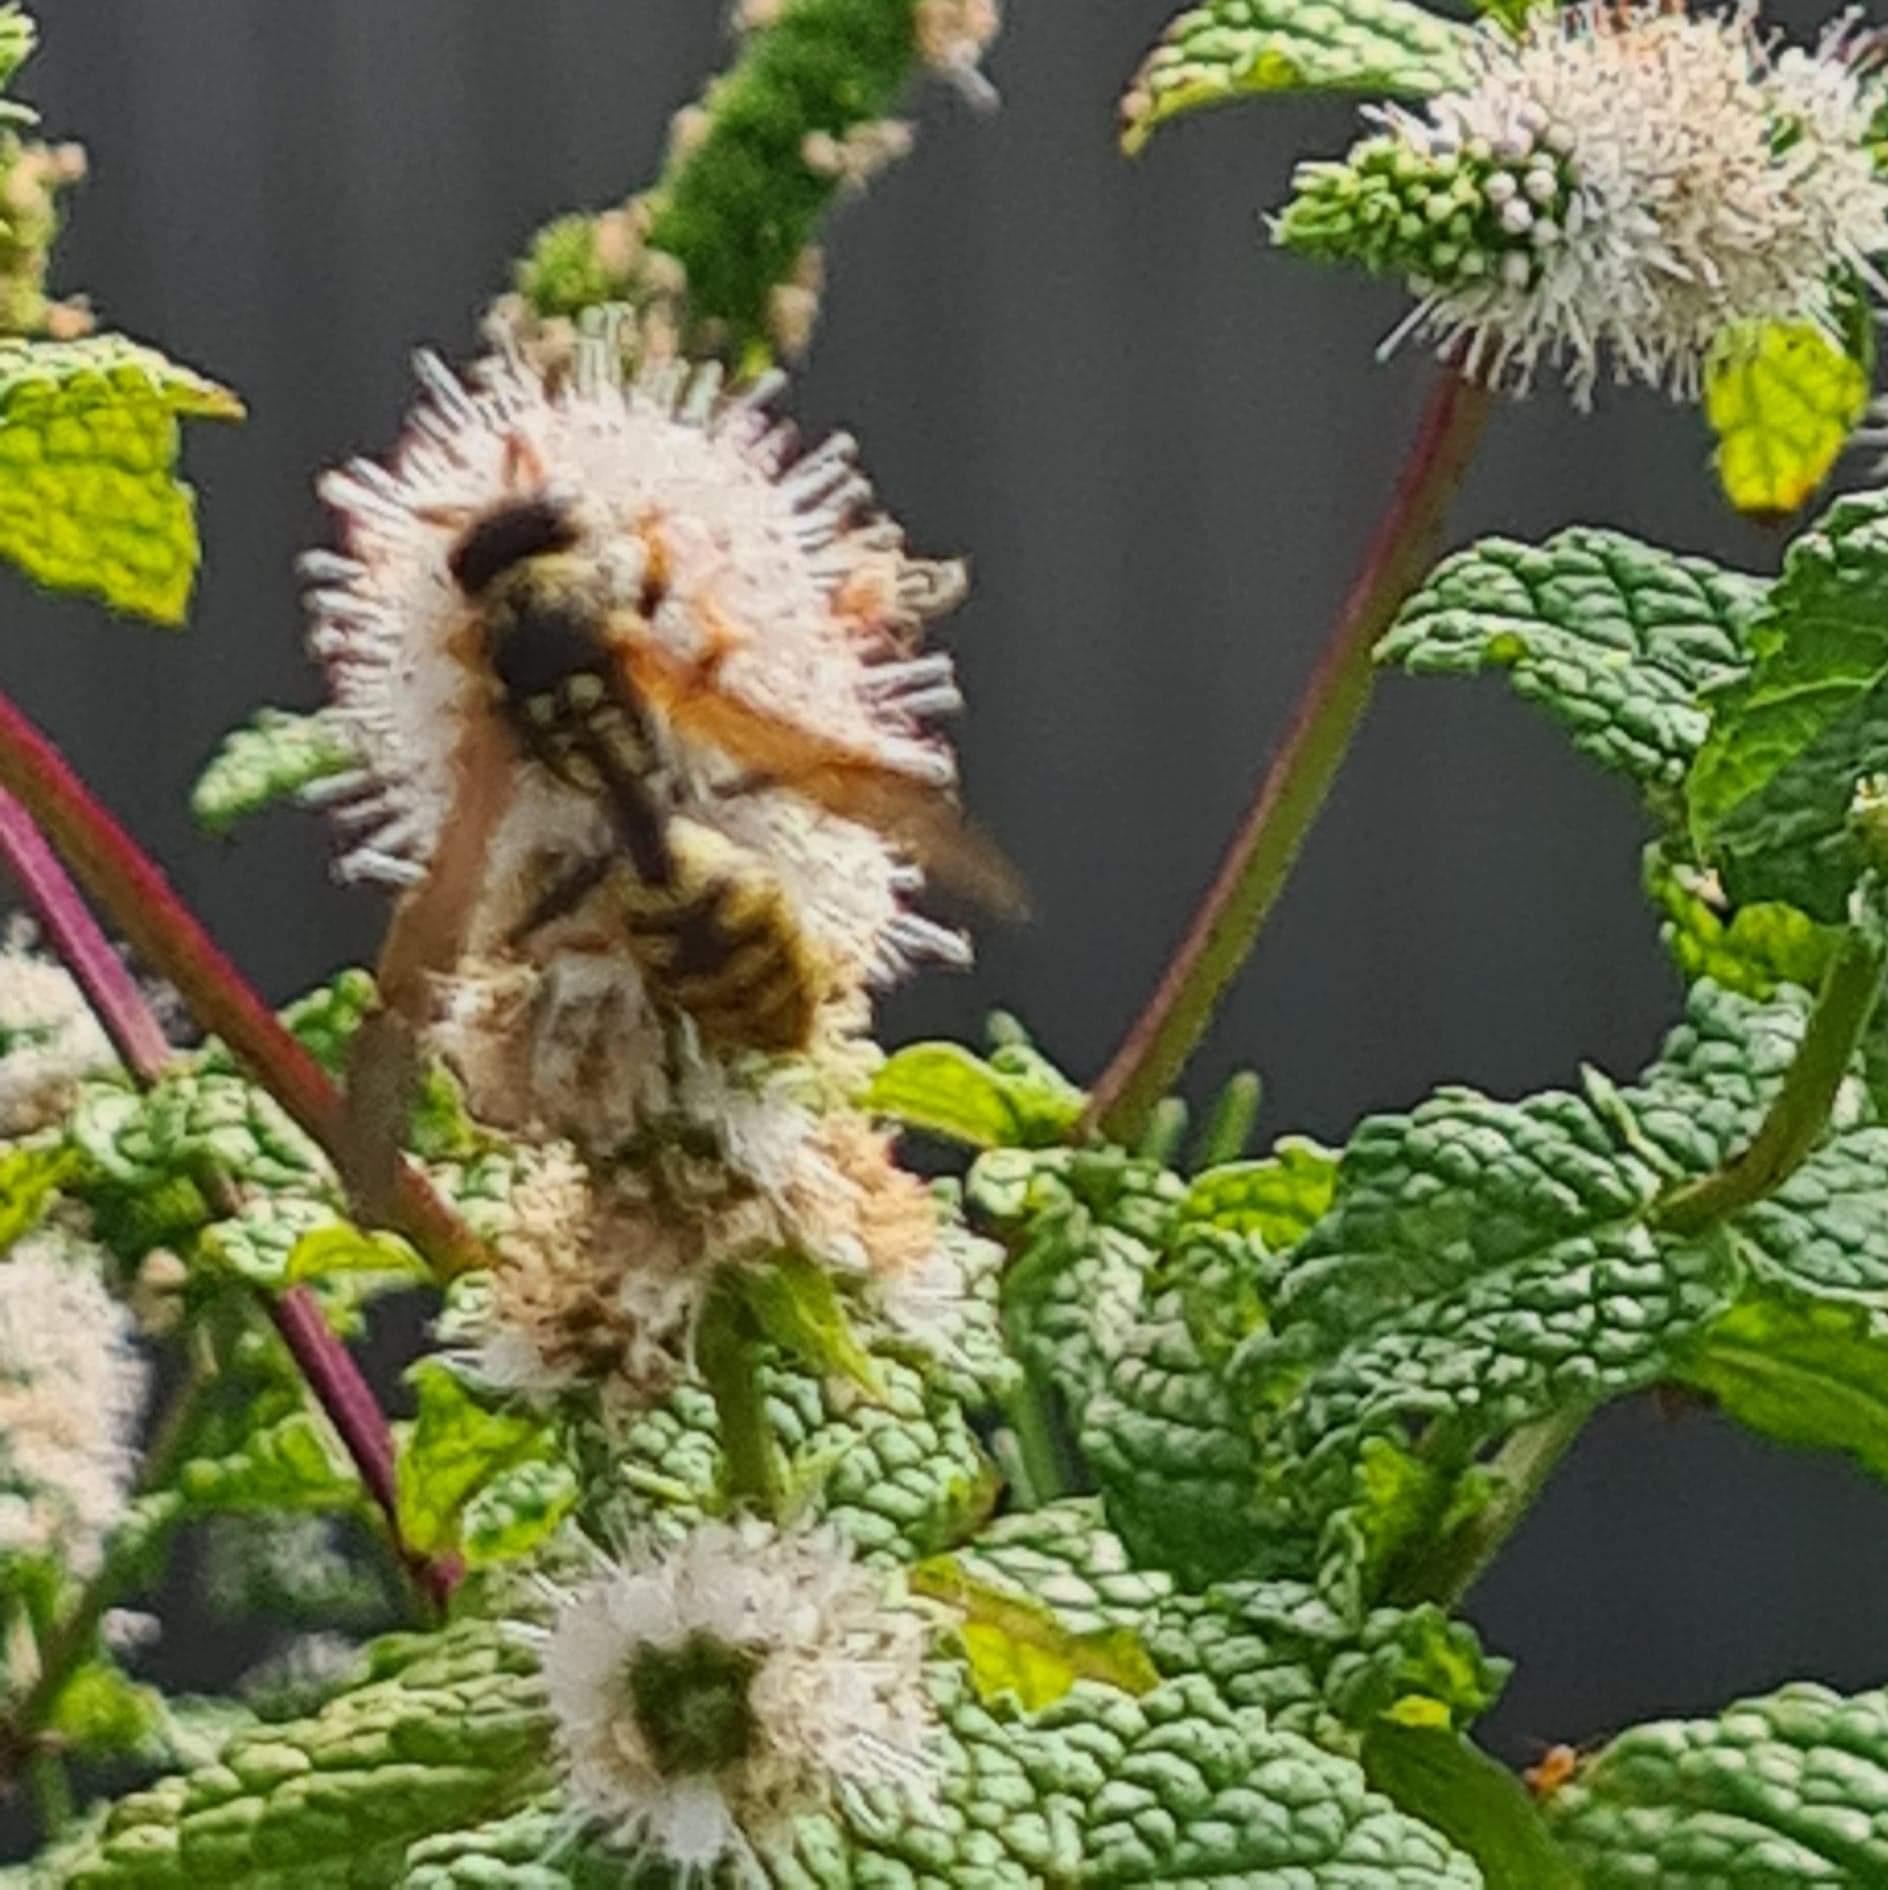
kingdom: Animalia
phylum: Arthropoda
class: Insecta
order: Hymenoptera
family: Eumenidae
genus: Polistes
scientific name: Polistes dominula
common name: Paper wasp
